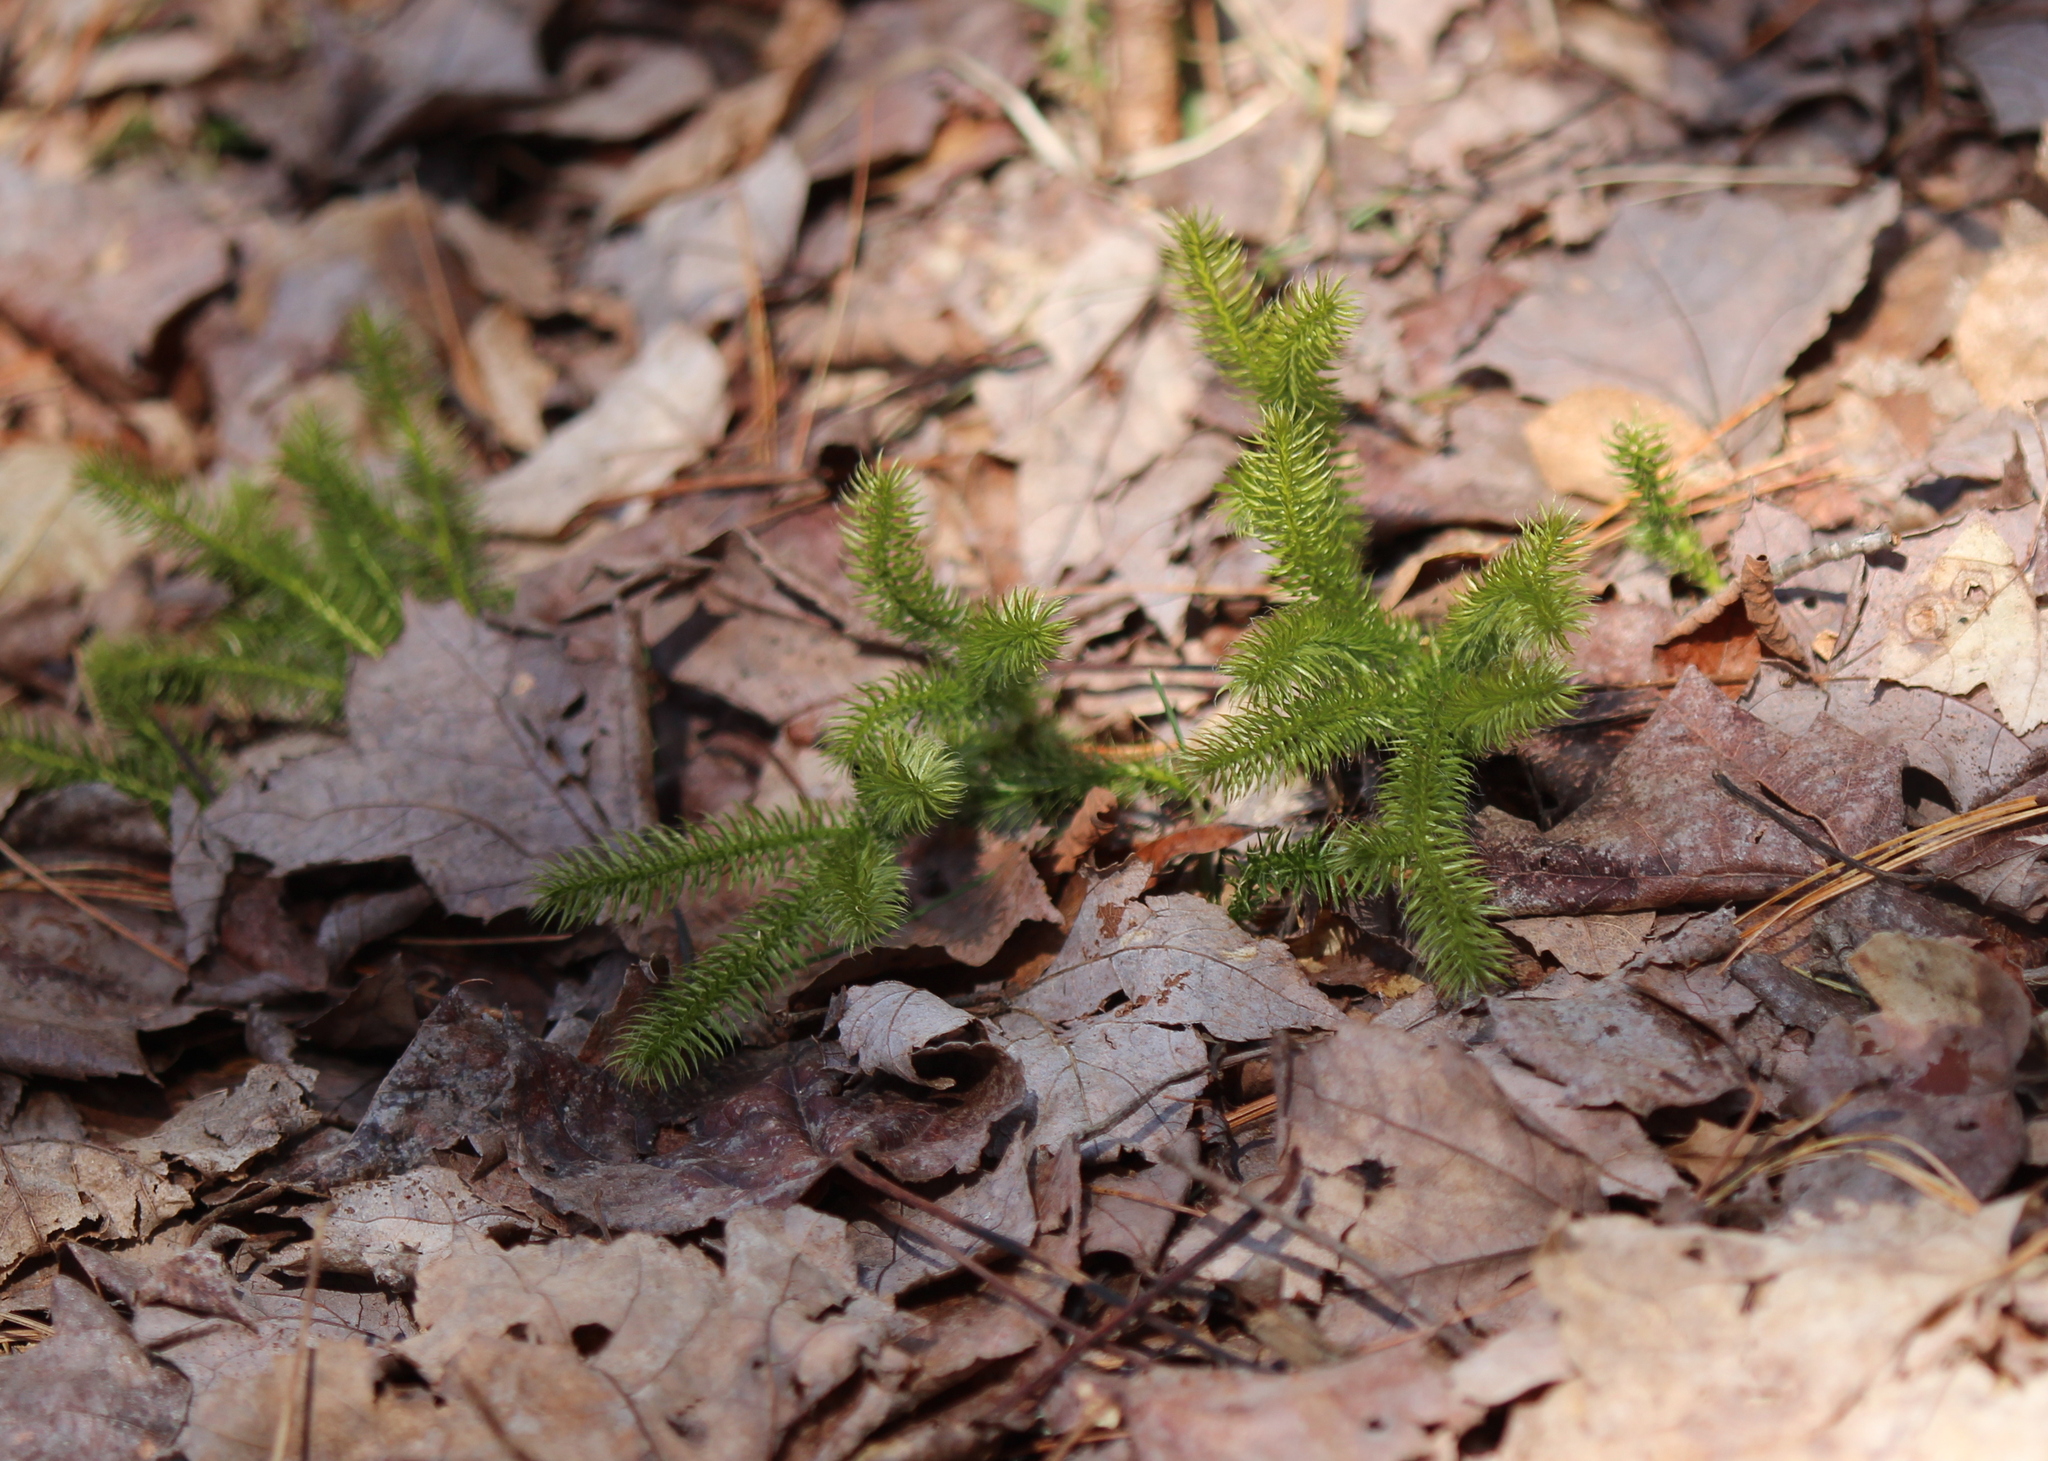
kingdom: Plantae
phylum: Tracheophyta
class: Lycopodiopsida
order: Lycopodiales
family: Lycopodiaceae
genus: Lycopodium
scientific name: Lycopodium clavatum
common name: Stag's-horn clubmoss
